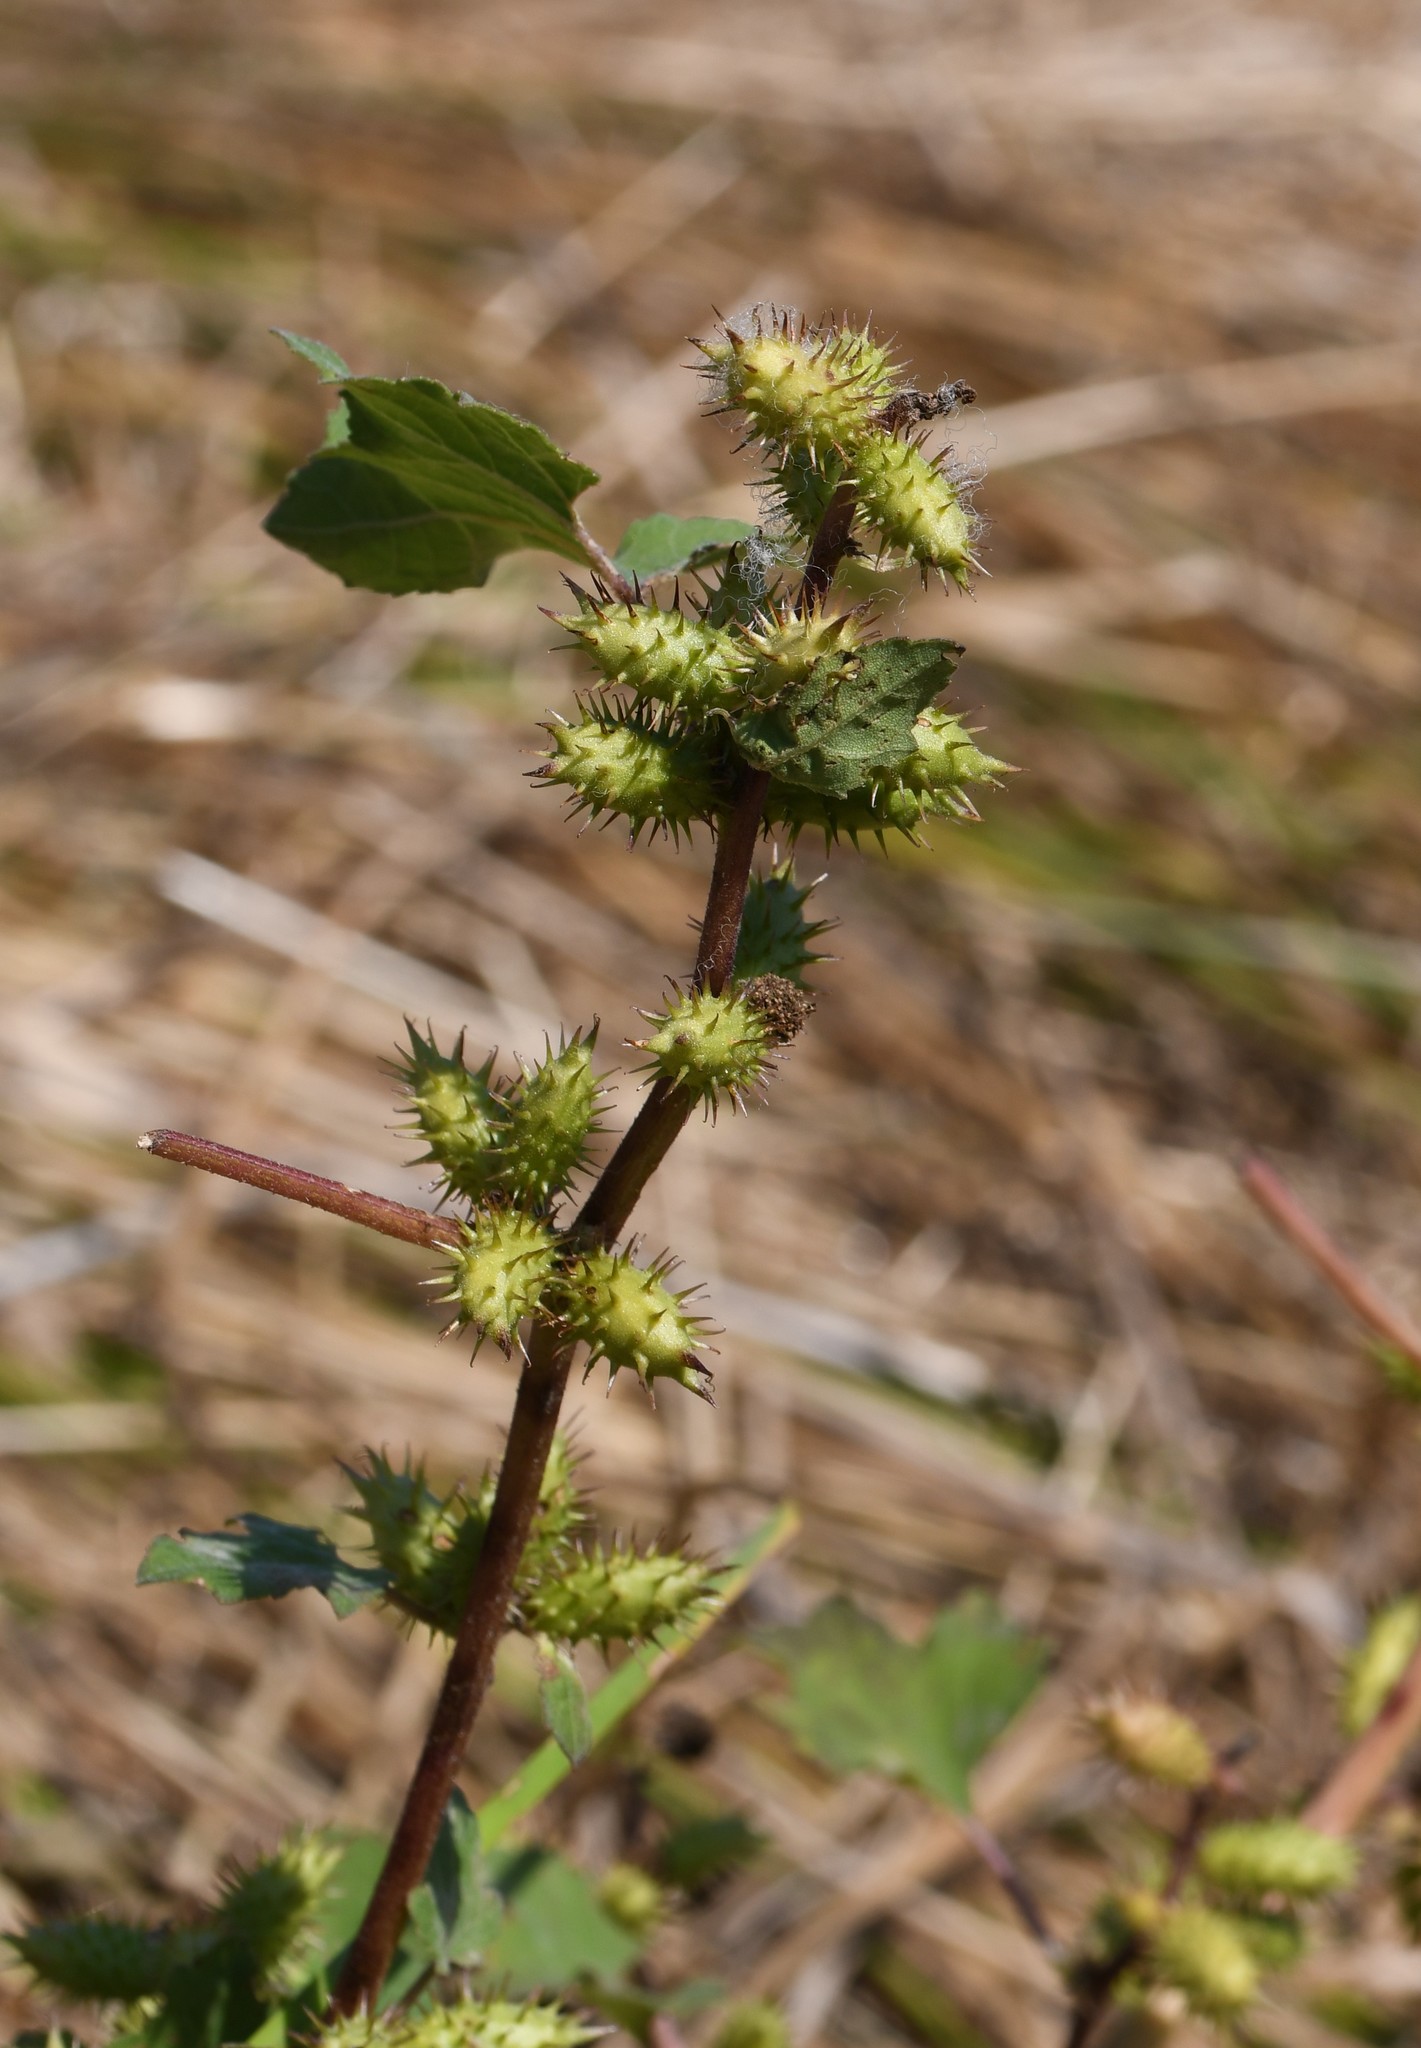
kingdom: Plantae
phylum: Tracheophyta
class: Magnoliopsida
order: Asterales
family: Asteraceae
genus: Xanthium
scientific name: Xanthium strumarium
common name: Rough cocklebur
